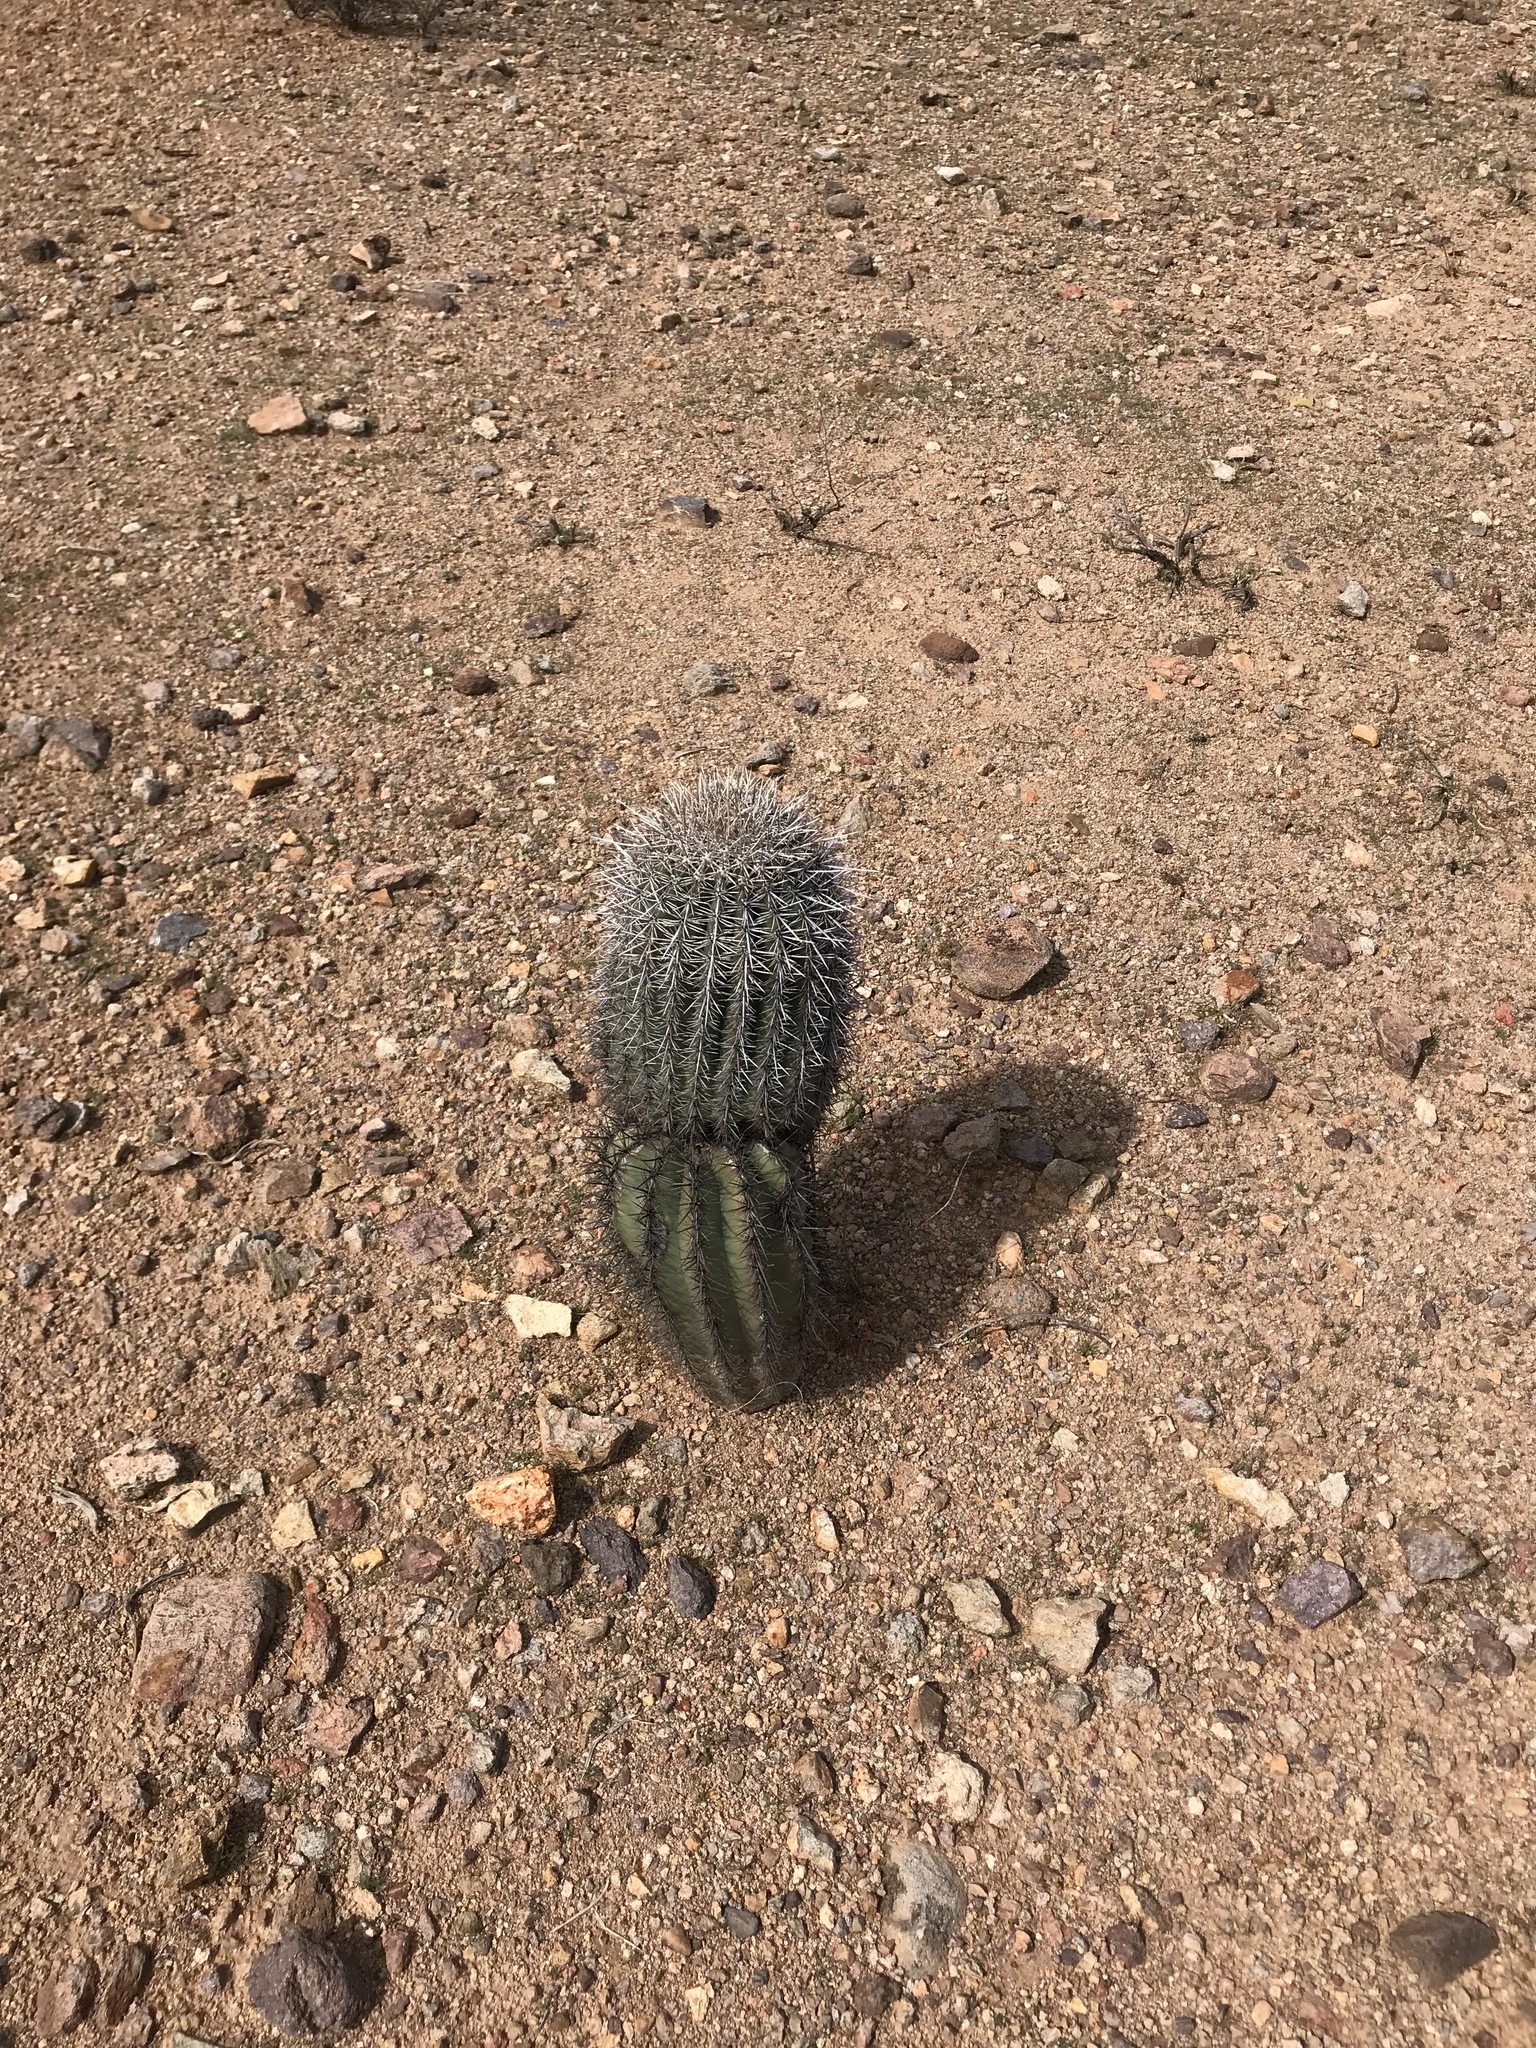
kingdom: Plantae
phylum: Tracheophyta
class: Magnoliopsida
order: Caryophyllales
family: Cactaceae
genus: Carnegiea
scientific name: Carnegiea gigantea
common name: Saguaro
